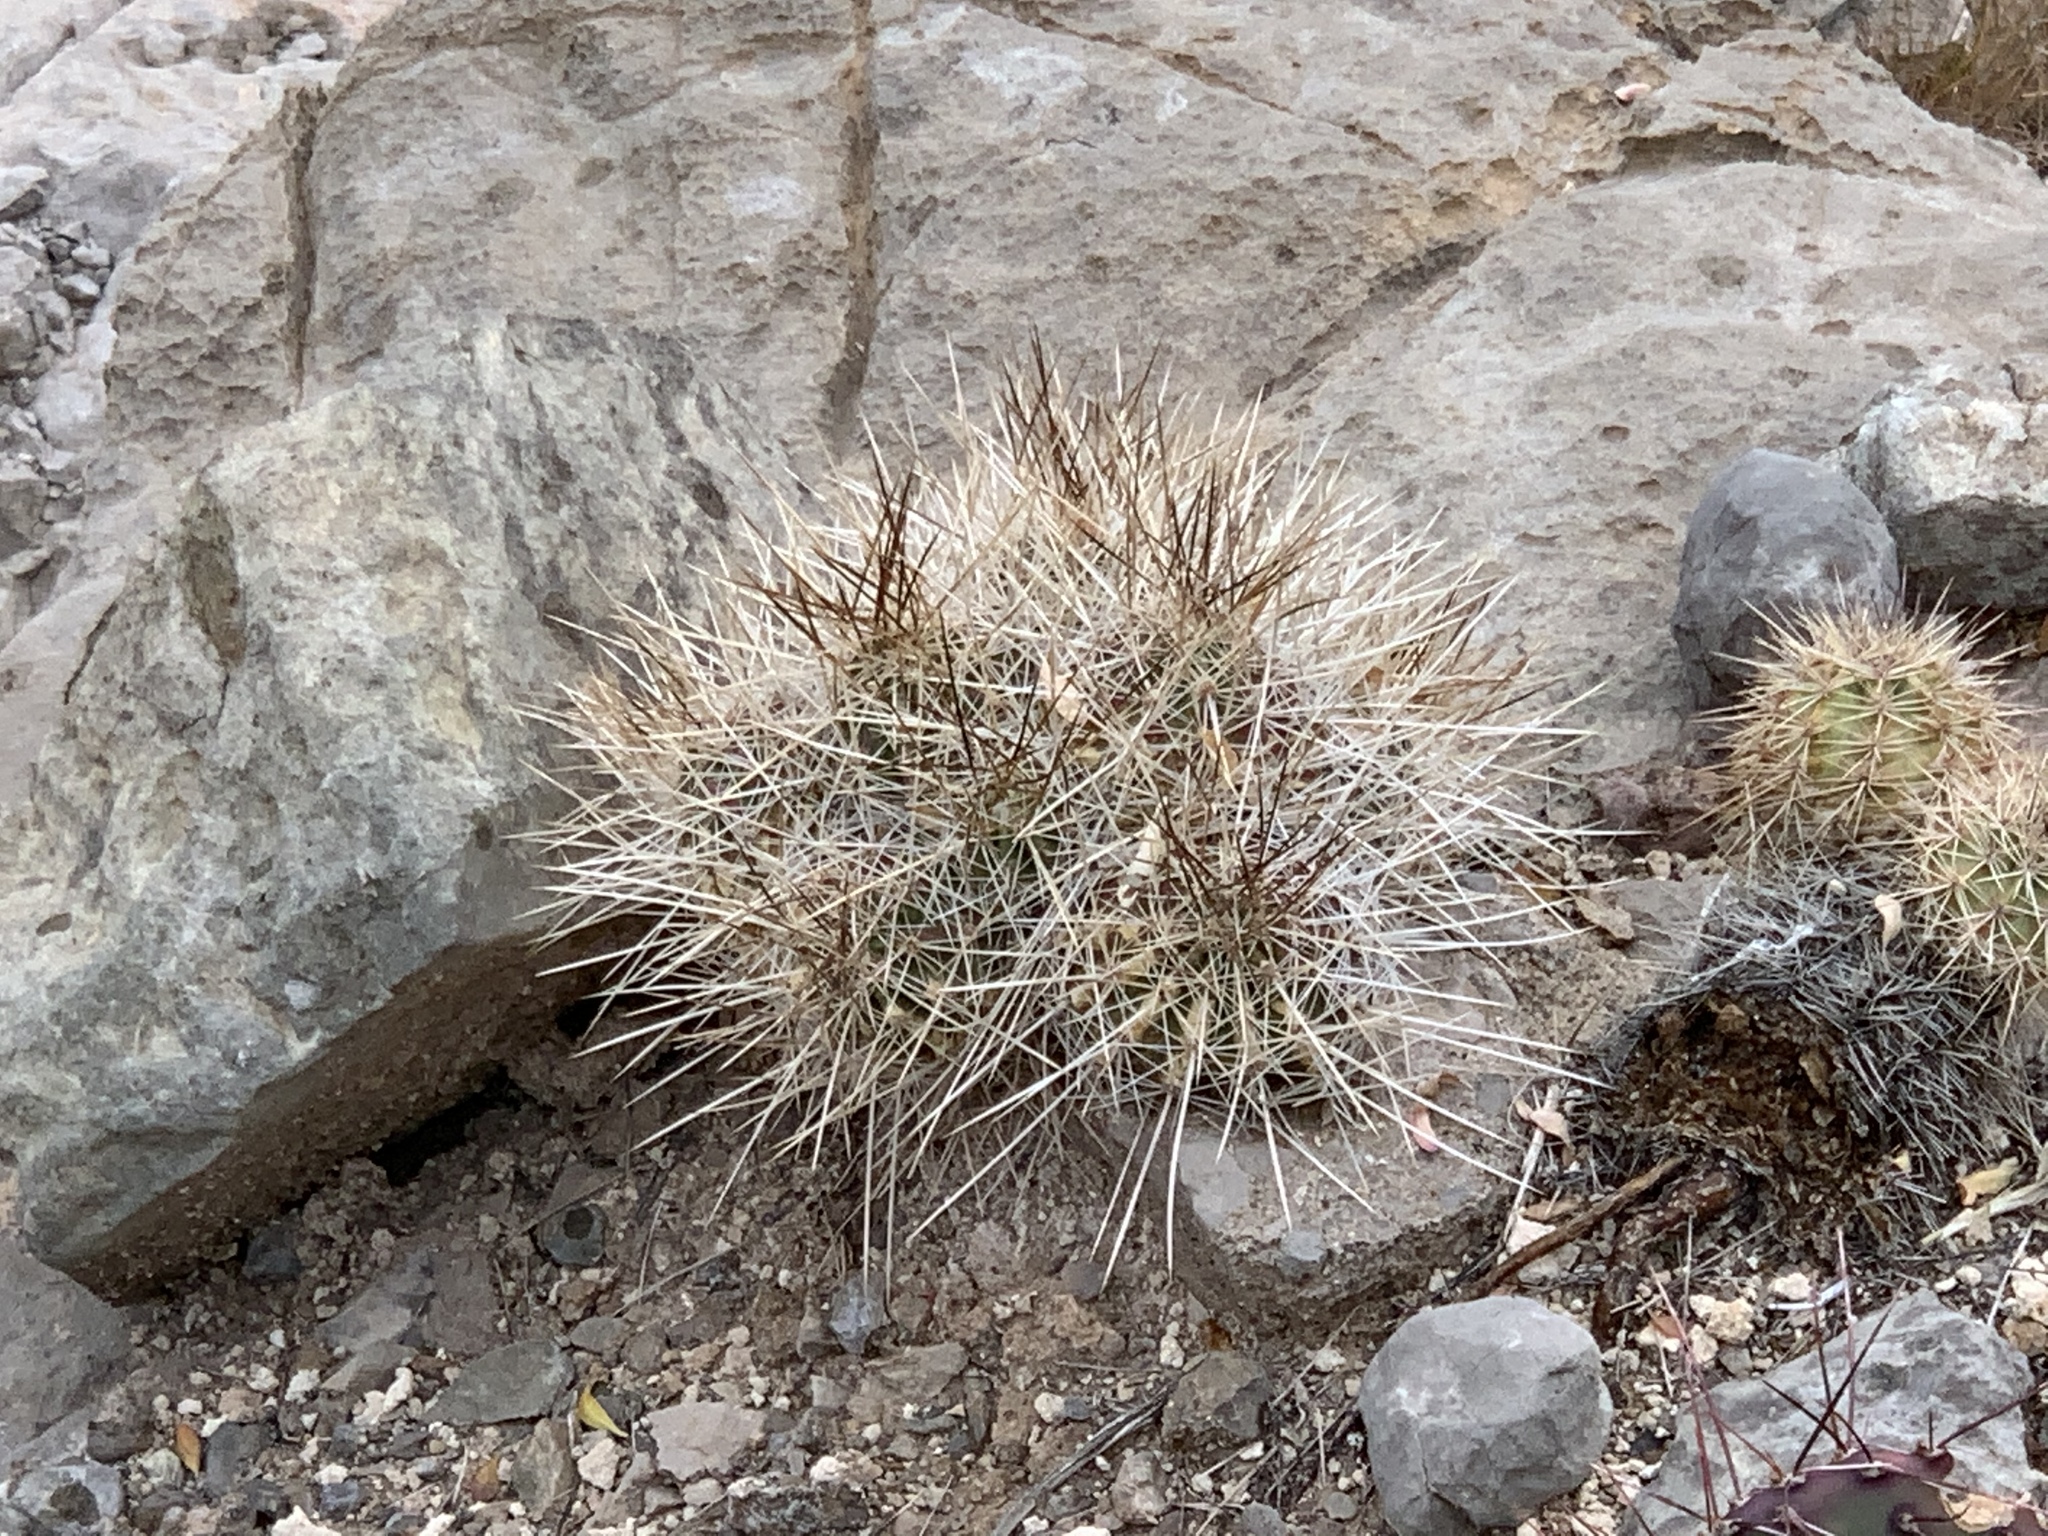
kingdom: Plantae
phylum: Tracheophyta
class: Magnoliopsida
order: Caryophyllales
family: Cactaceae
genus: Echinocereus
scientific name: Echinocereus stramineus
